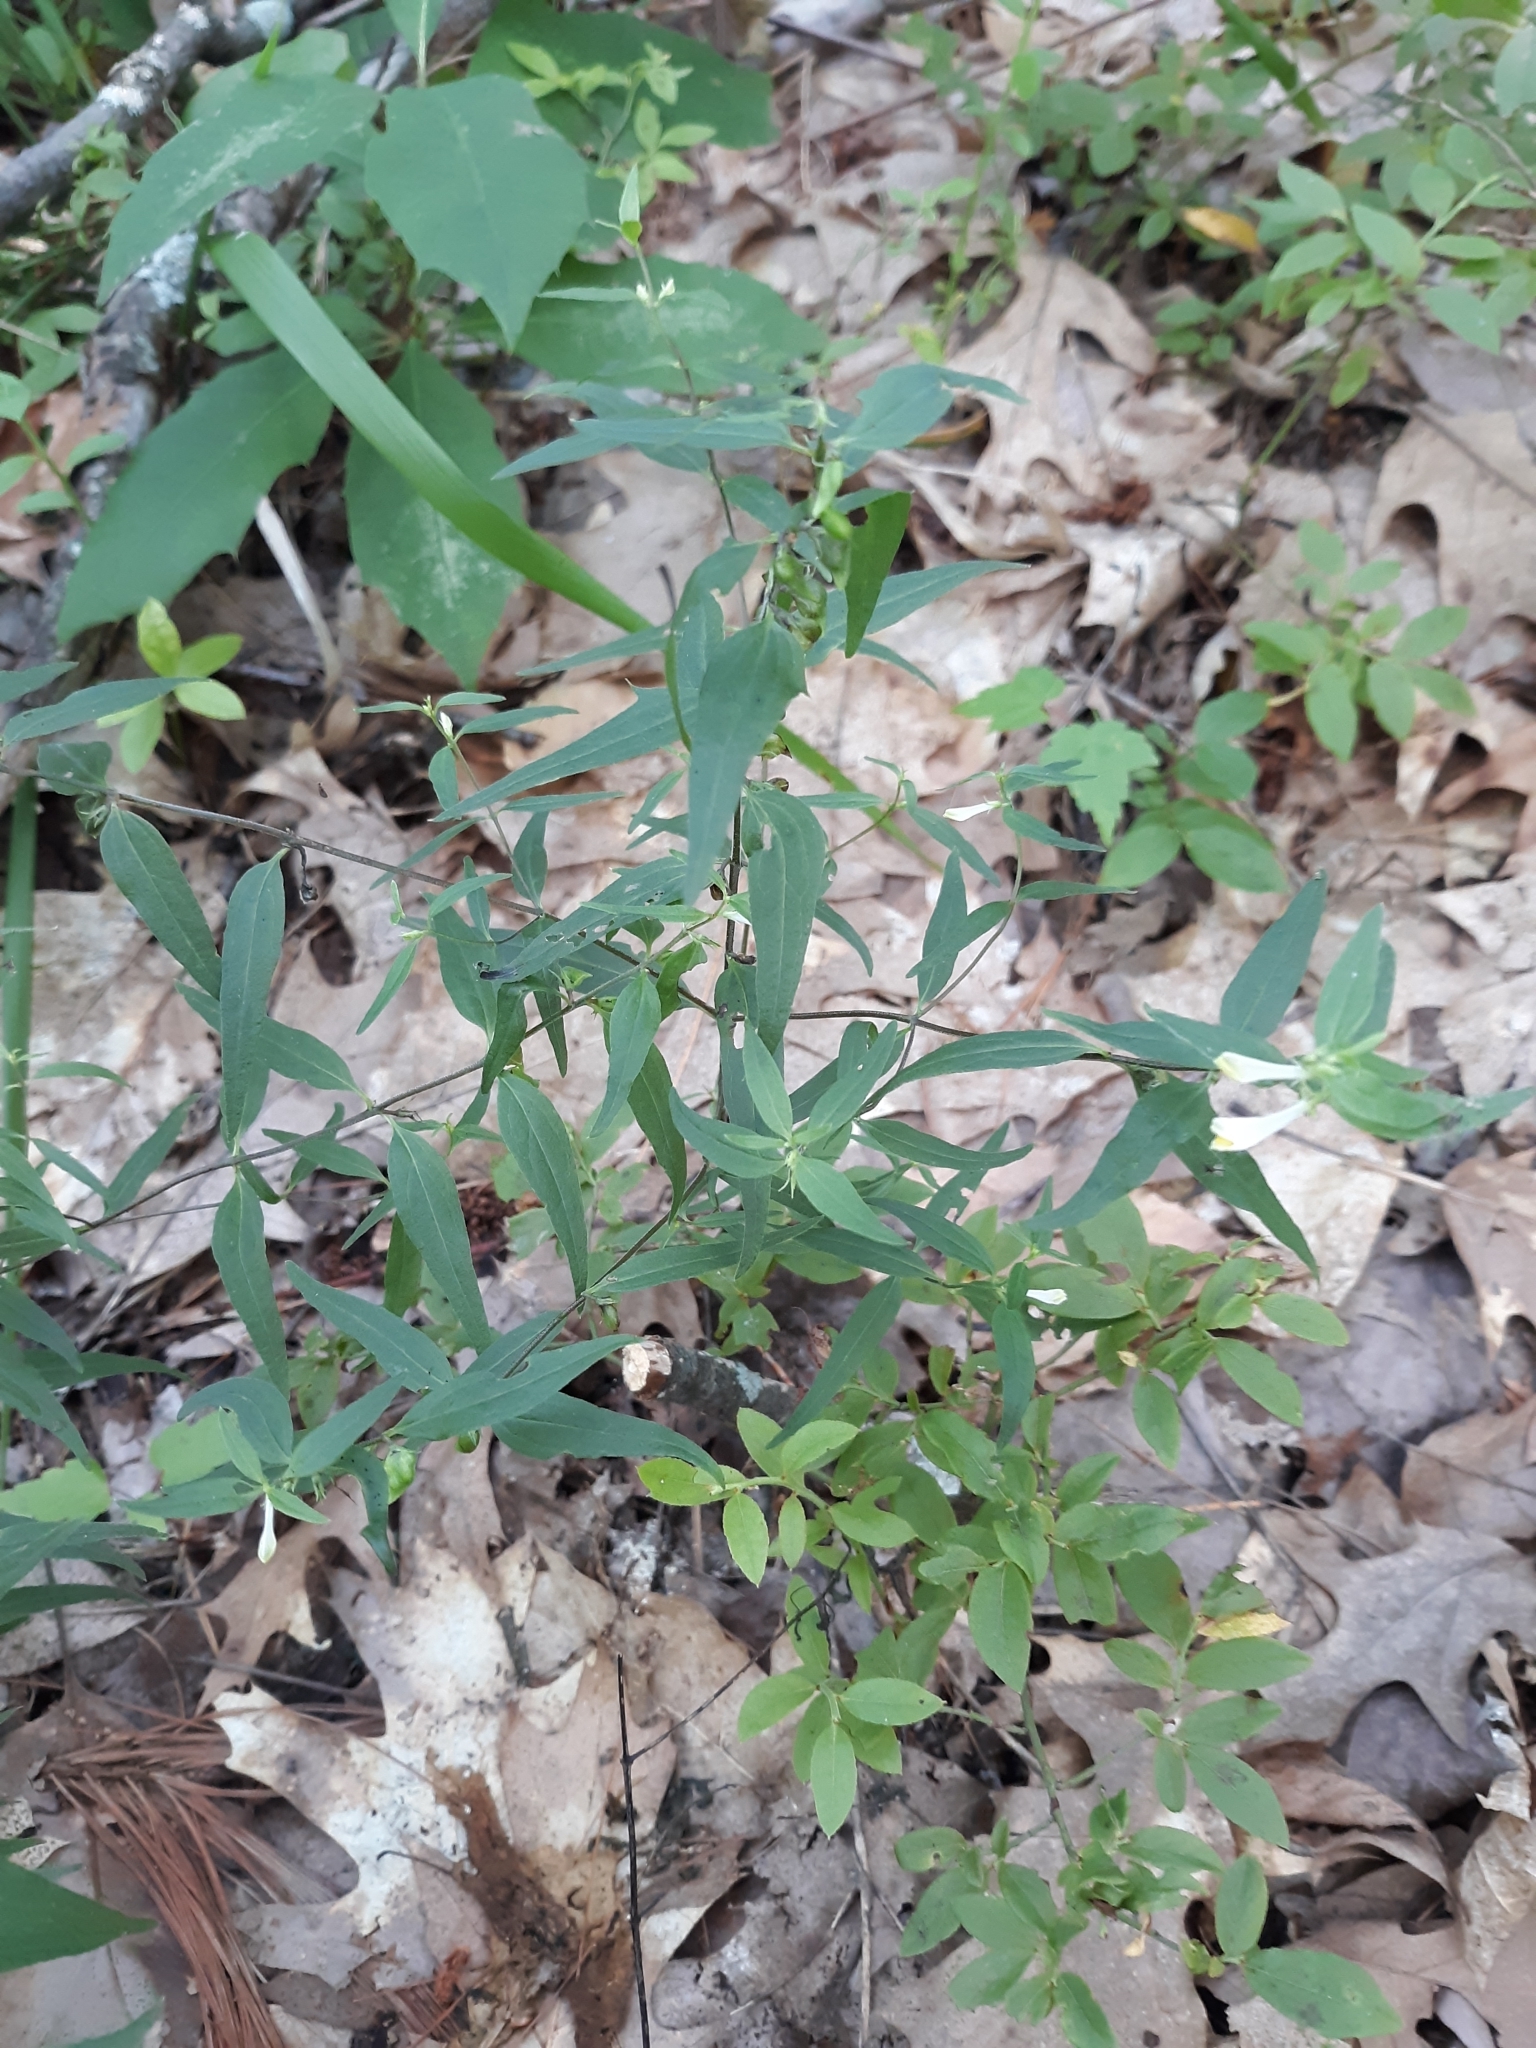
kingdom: Plantae
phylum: Tracheophyta
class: Magnoliopsida
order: Lamiales
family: Orobanchaceae
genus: Melampyrum
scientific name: Melampyrum lineare
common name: American cow-wheat
